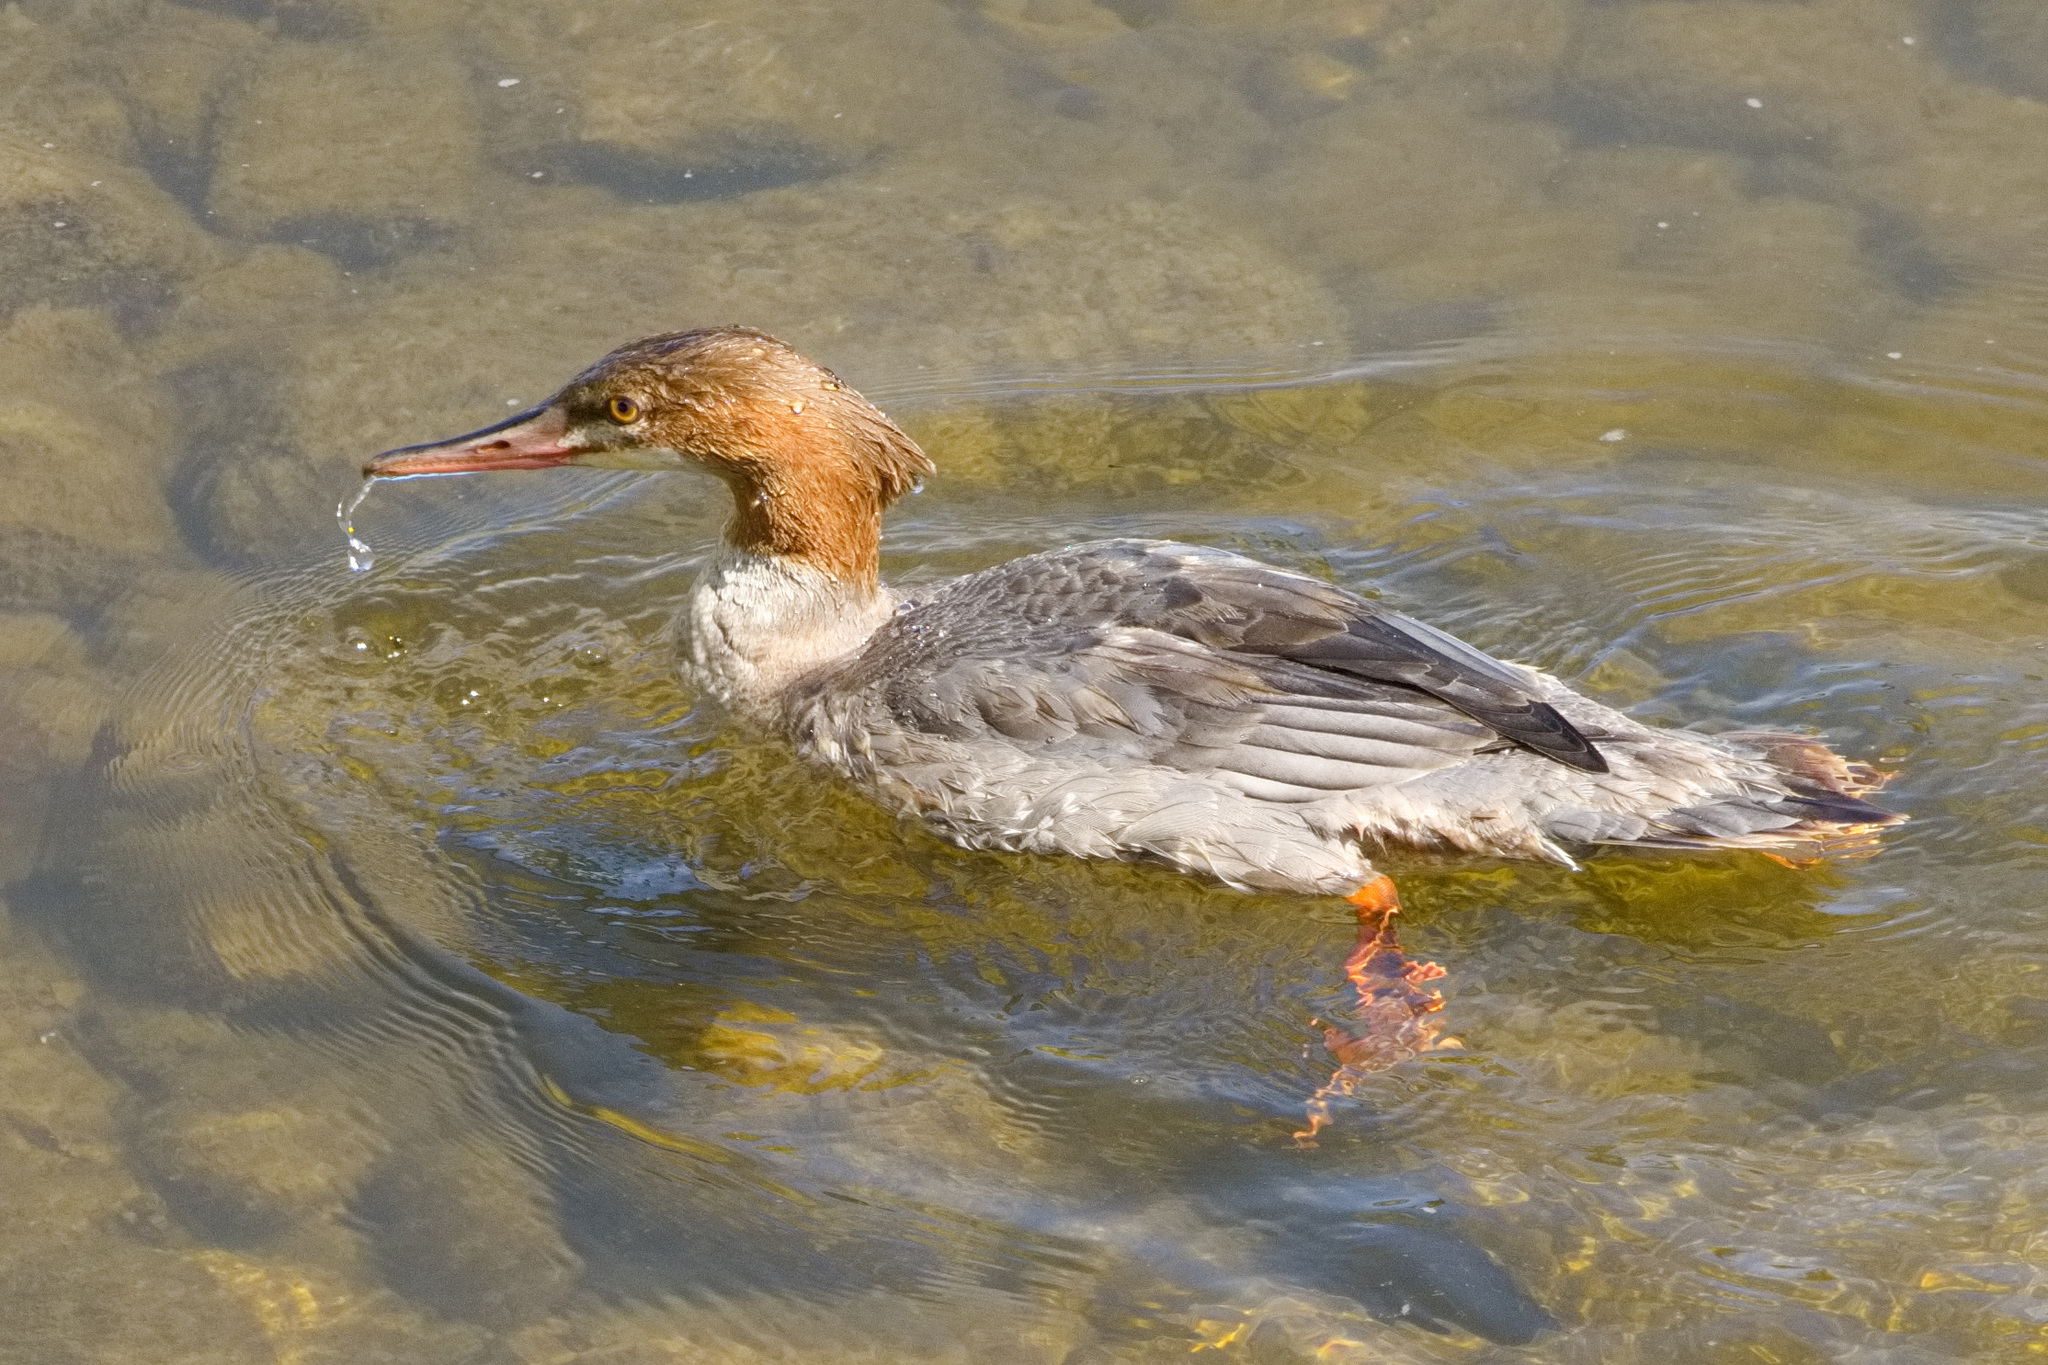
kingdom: Animalia
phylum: Chordata
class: Aves
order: Anseriformes
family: Anatidae
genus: Mergus
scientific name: Mergus merganser
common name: Common merganser
